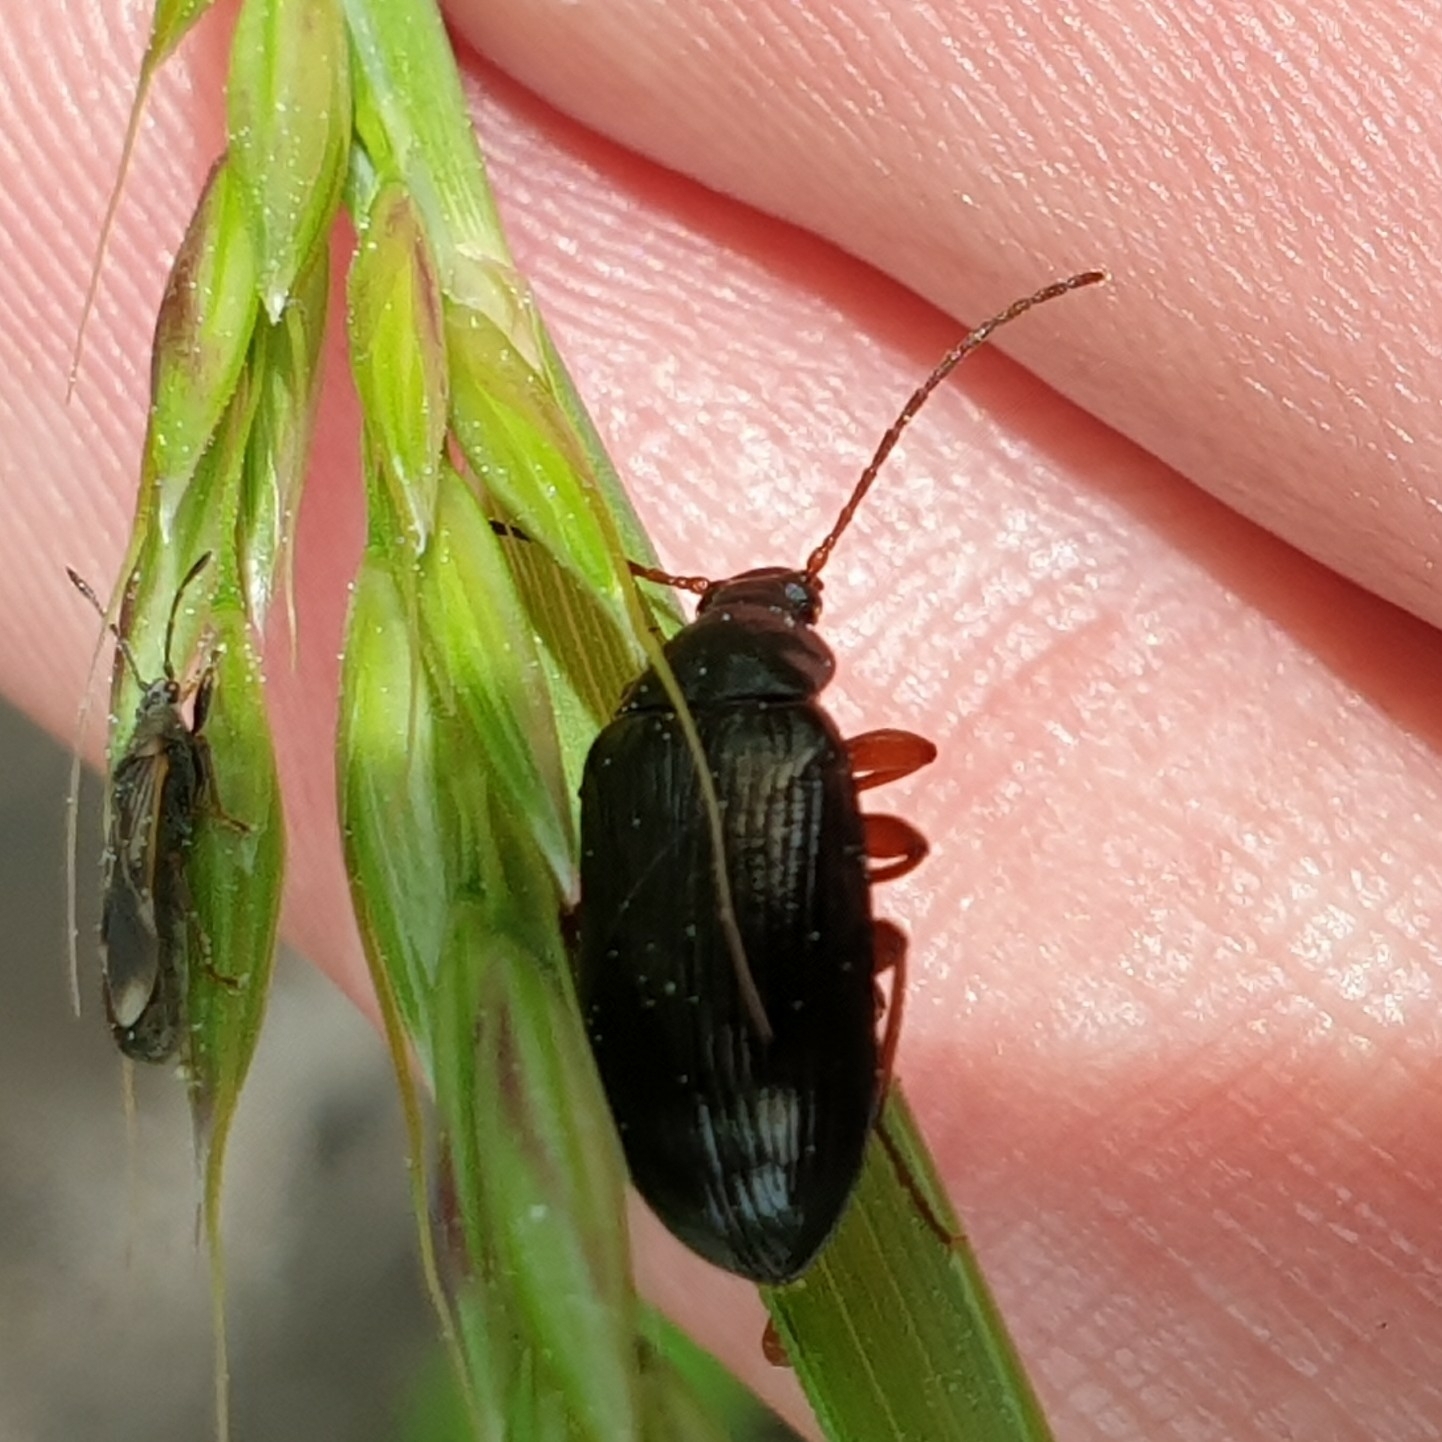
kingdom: Animalia
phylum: Arthropoda
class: Insecta
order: Coleoptera
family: Tenebrionidae
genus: Gonodera
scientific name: Gonodera luperus
